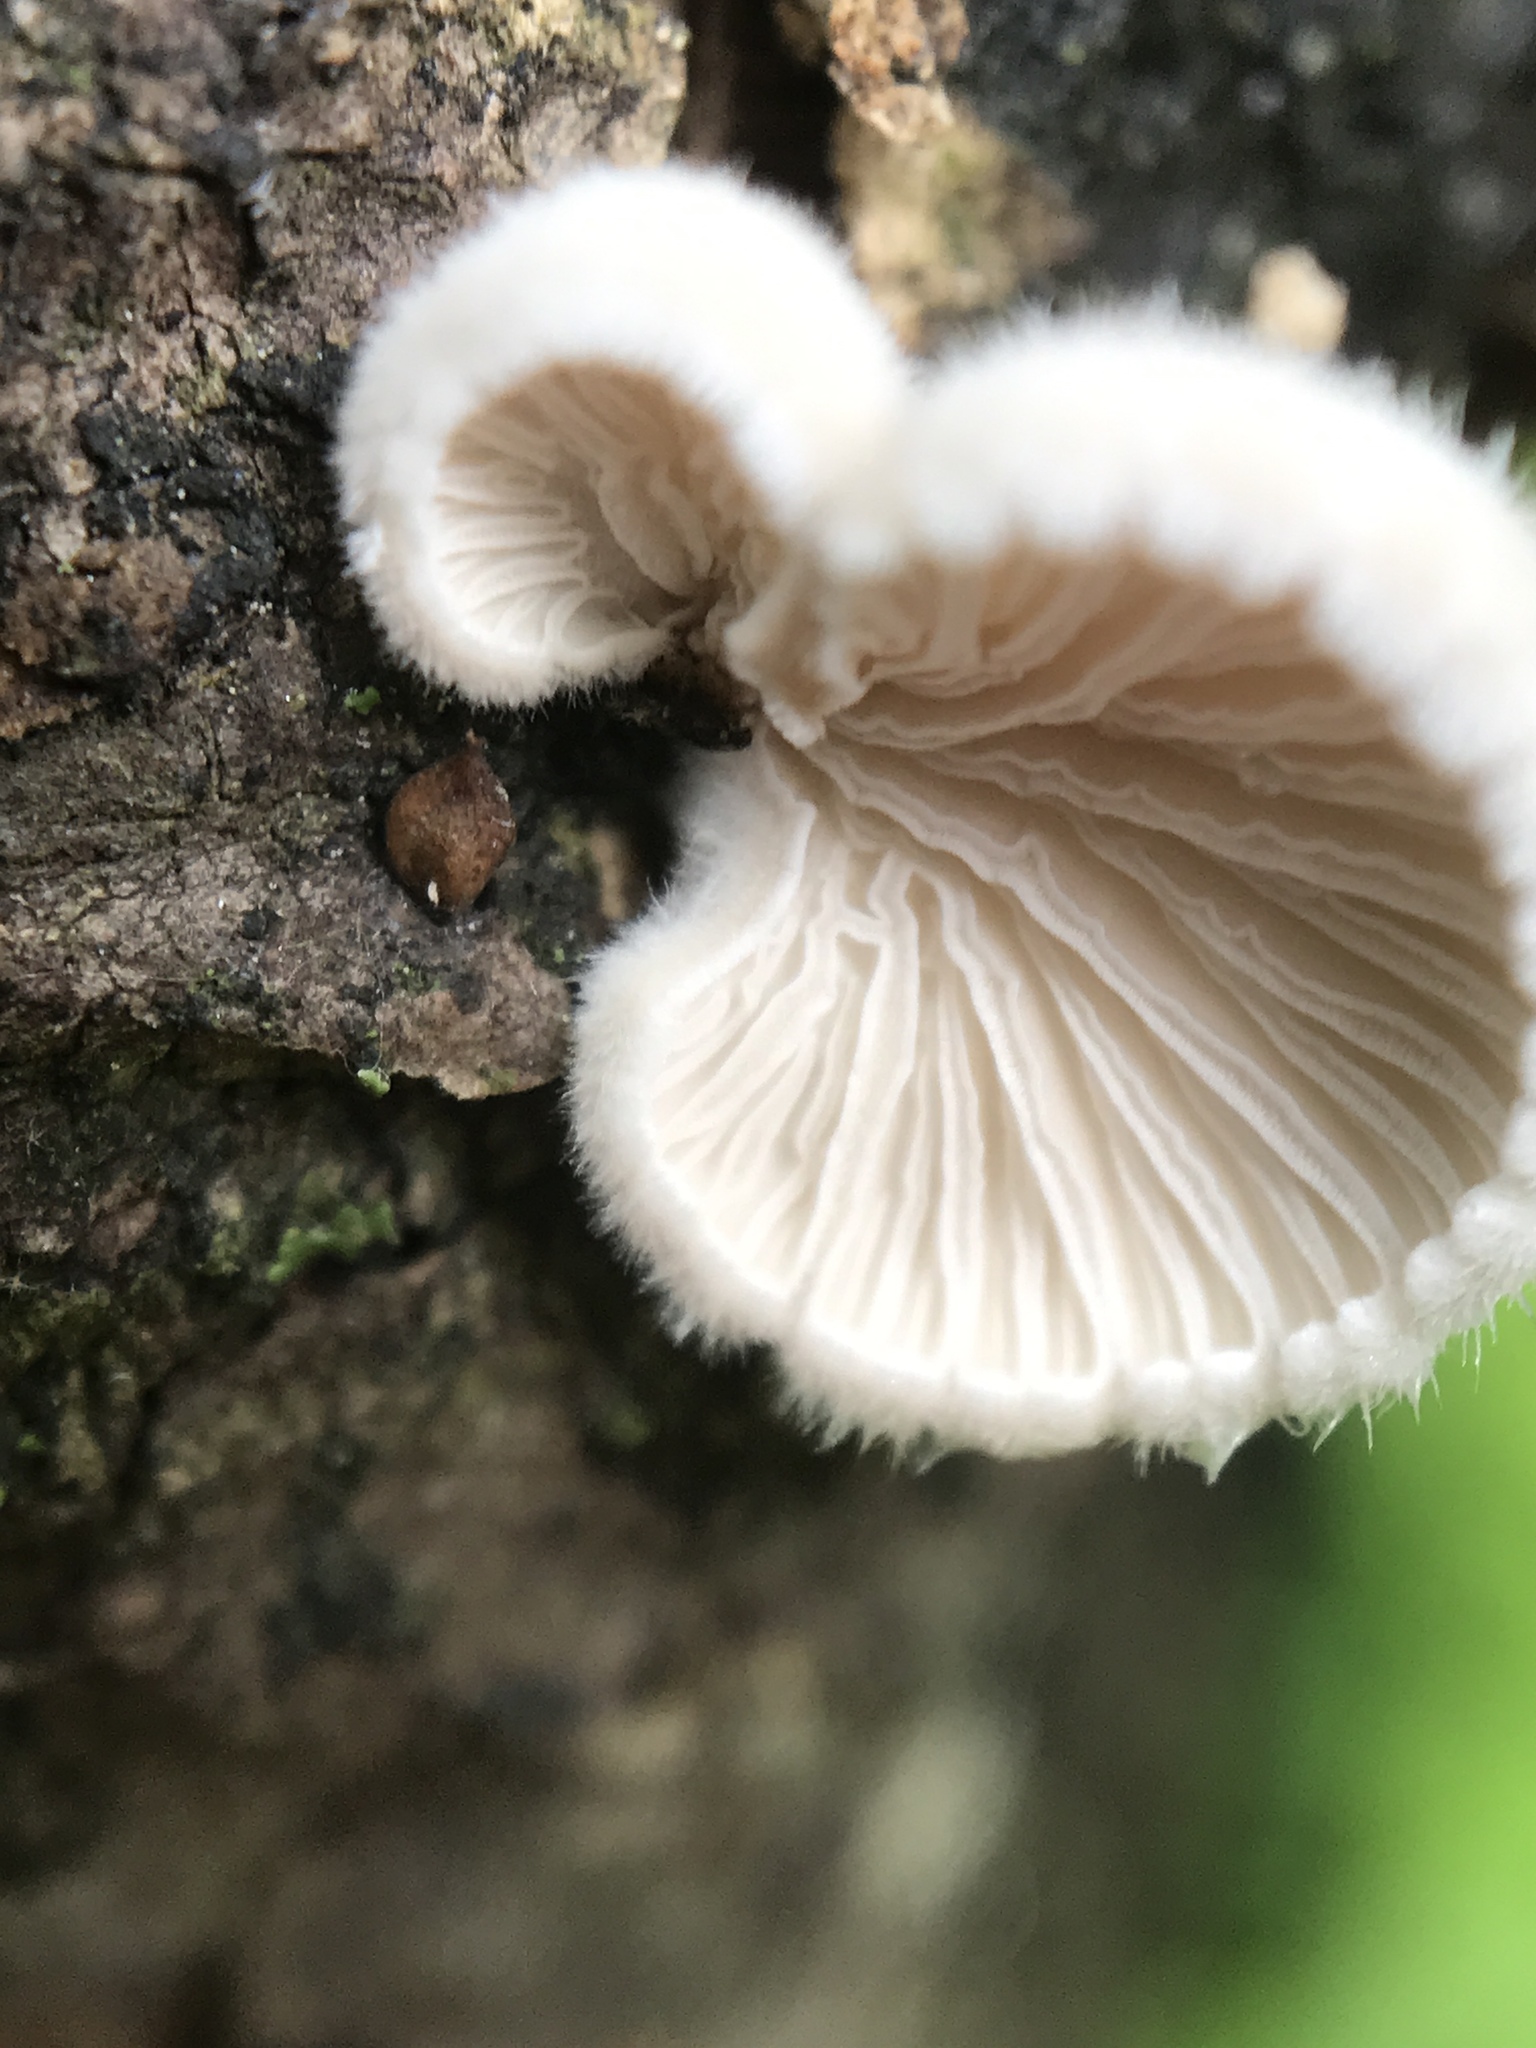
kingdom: Fungi
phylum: Basidiomycota
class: Agaricomycetes
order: Agaricales
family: Schizophyllaceae
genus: Schizophyllum
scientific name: Schizophyllum commune
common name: Common porecrust
